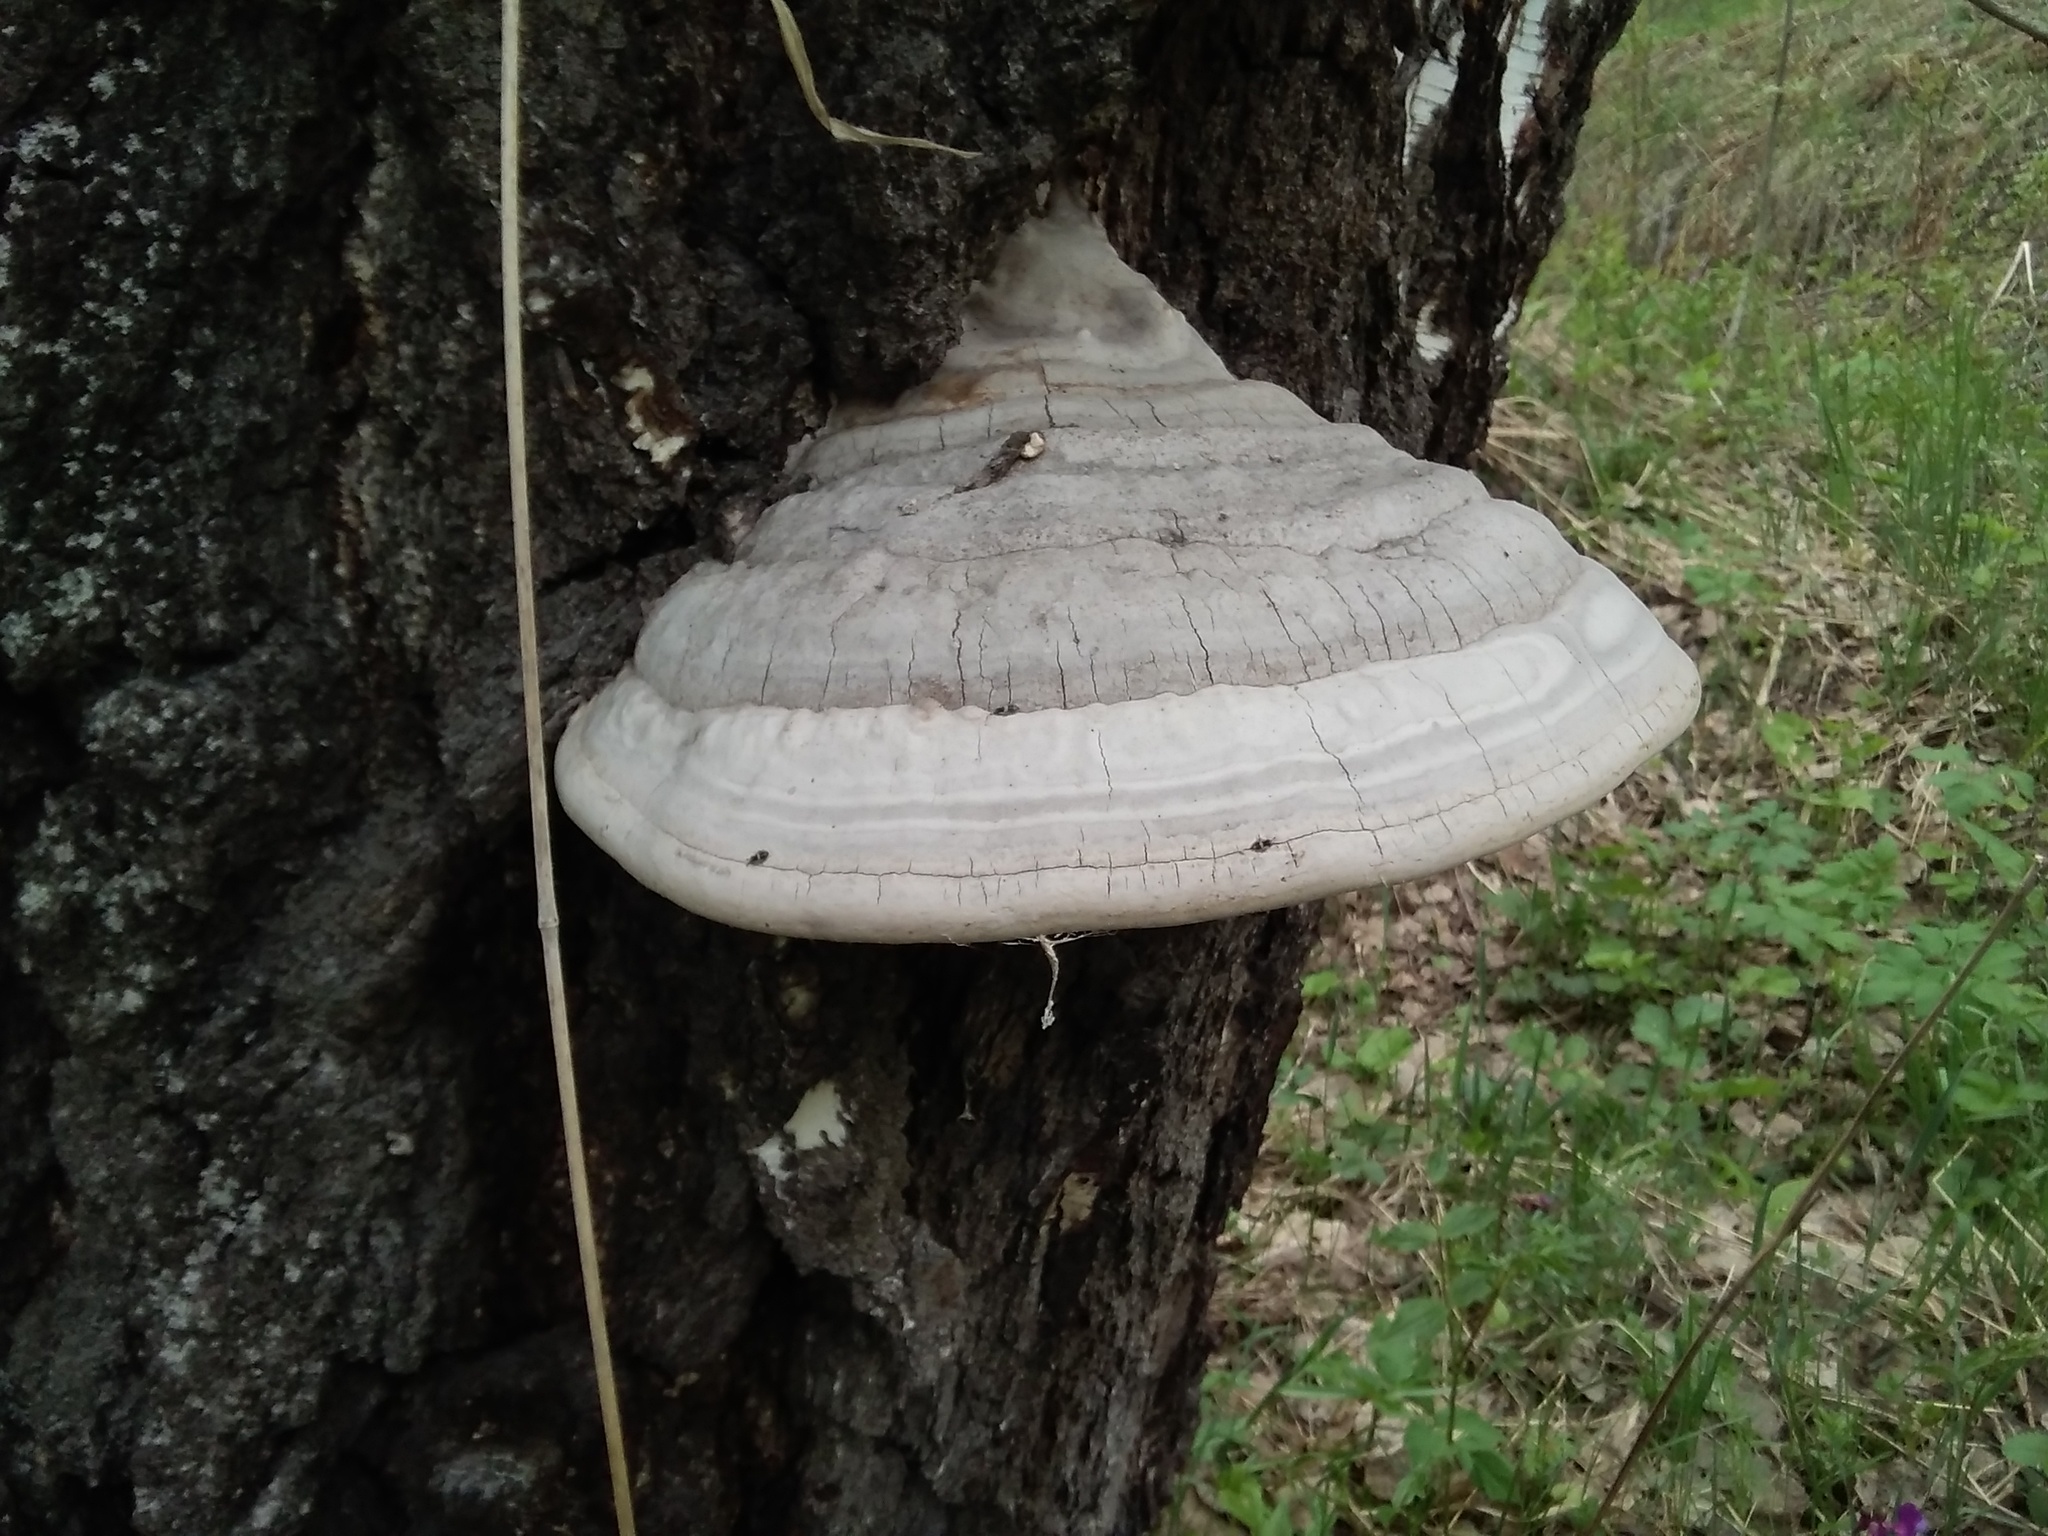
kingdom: Fungi
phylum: Basidiomycota
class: Agaricomycetes
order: Polyporales
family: Polyporaceae
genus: Fomes
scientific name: Fomes fomentarius
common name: Hoof fungus
